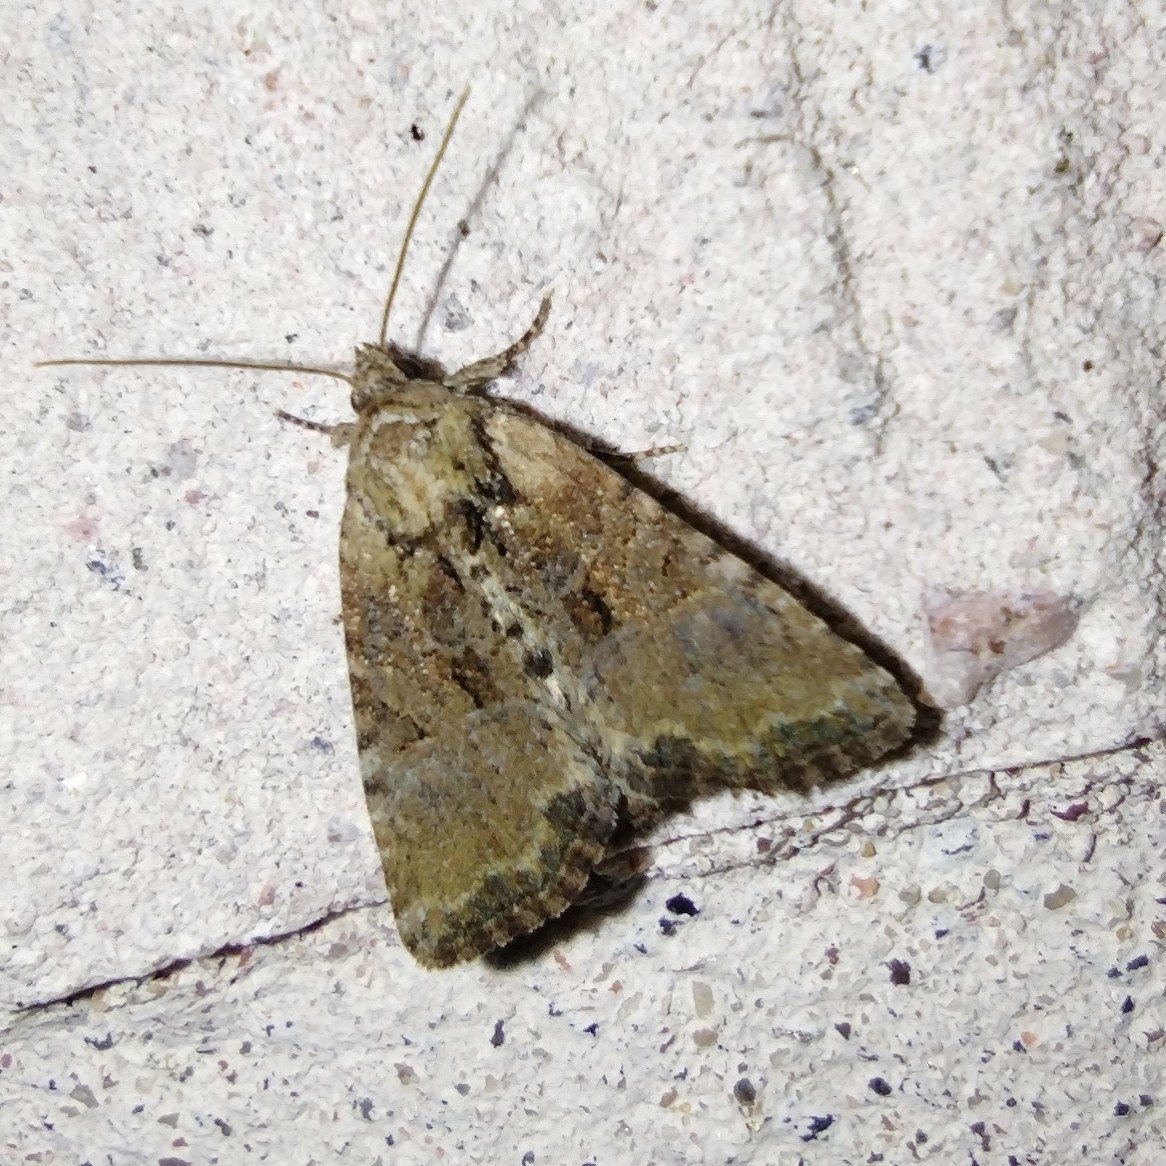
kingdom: Animalia
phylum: Arthropoda
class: Insecta
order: Lepidoptera
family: Noctuidae
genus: Mesoligia
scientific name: Mesoligia furuncula
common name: Cloaked minor
